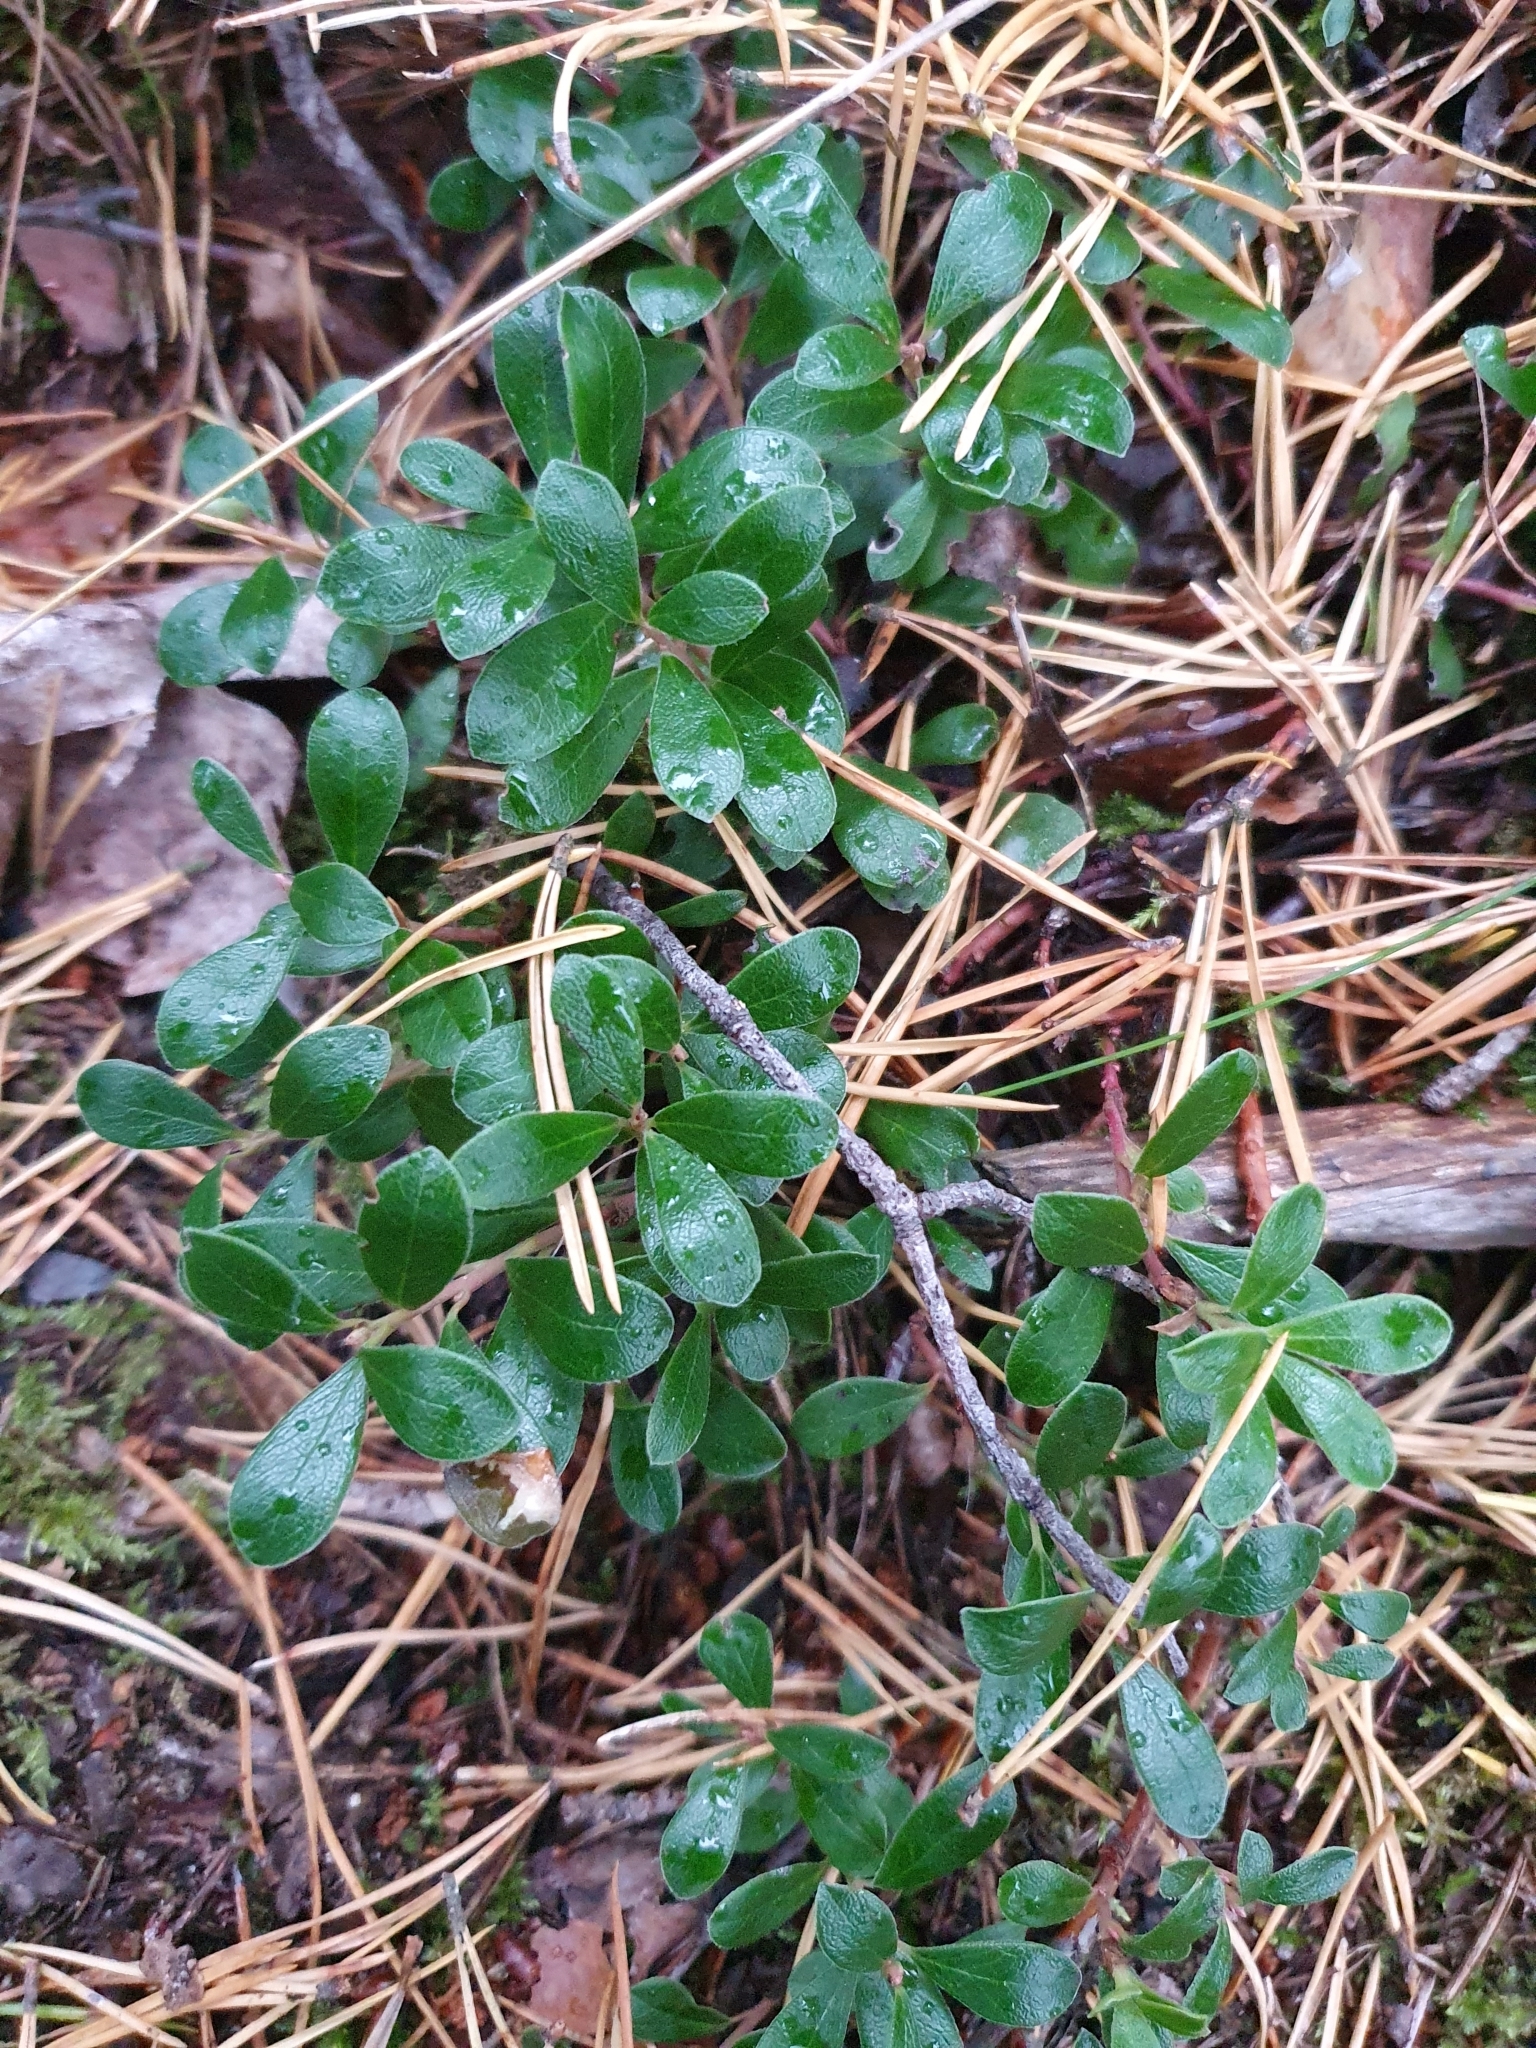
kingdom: Plantae
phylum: Tracheophyta
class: Magnoliopsida
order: Ericales
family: Ericaceae
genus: Arctostaphylos
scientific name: Arctostaphylos uva-ursi
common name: Bearberry
